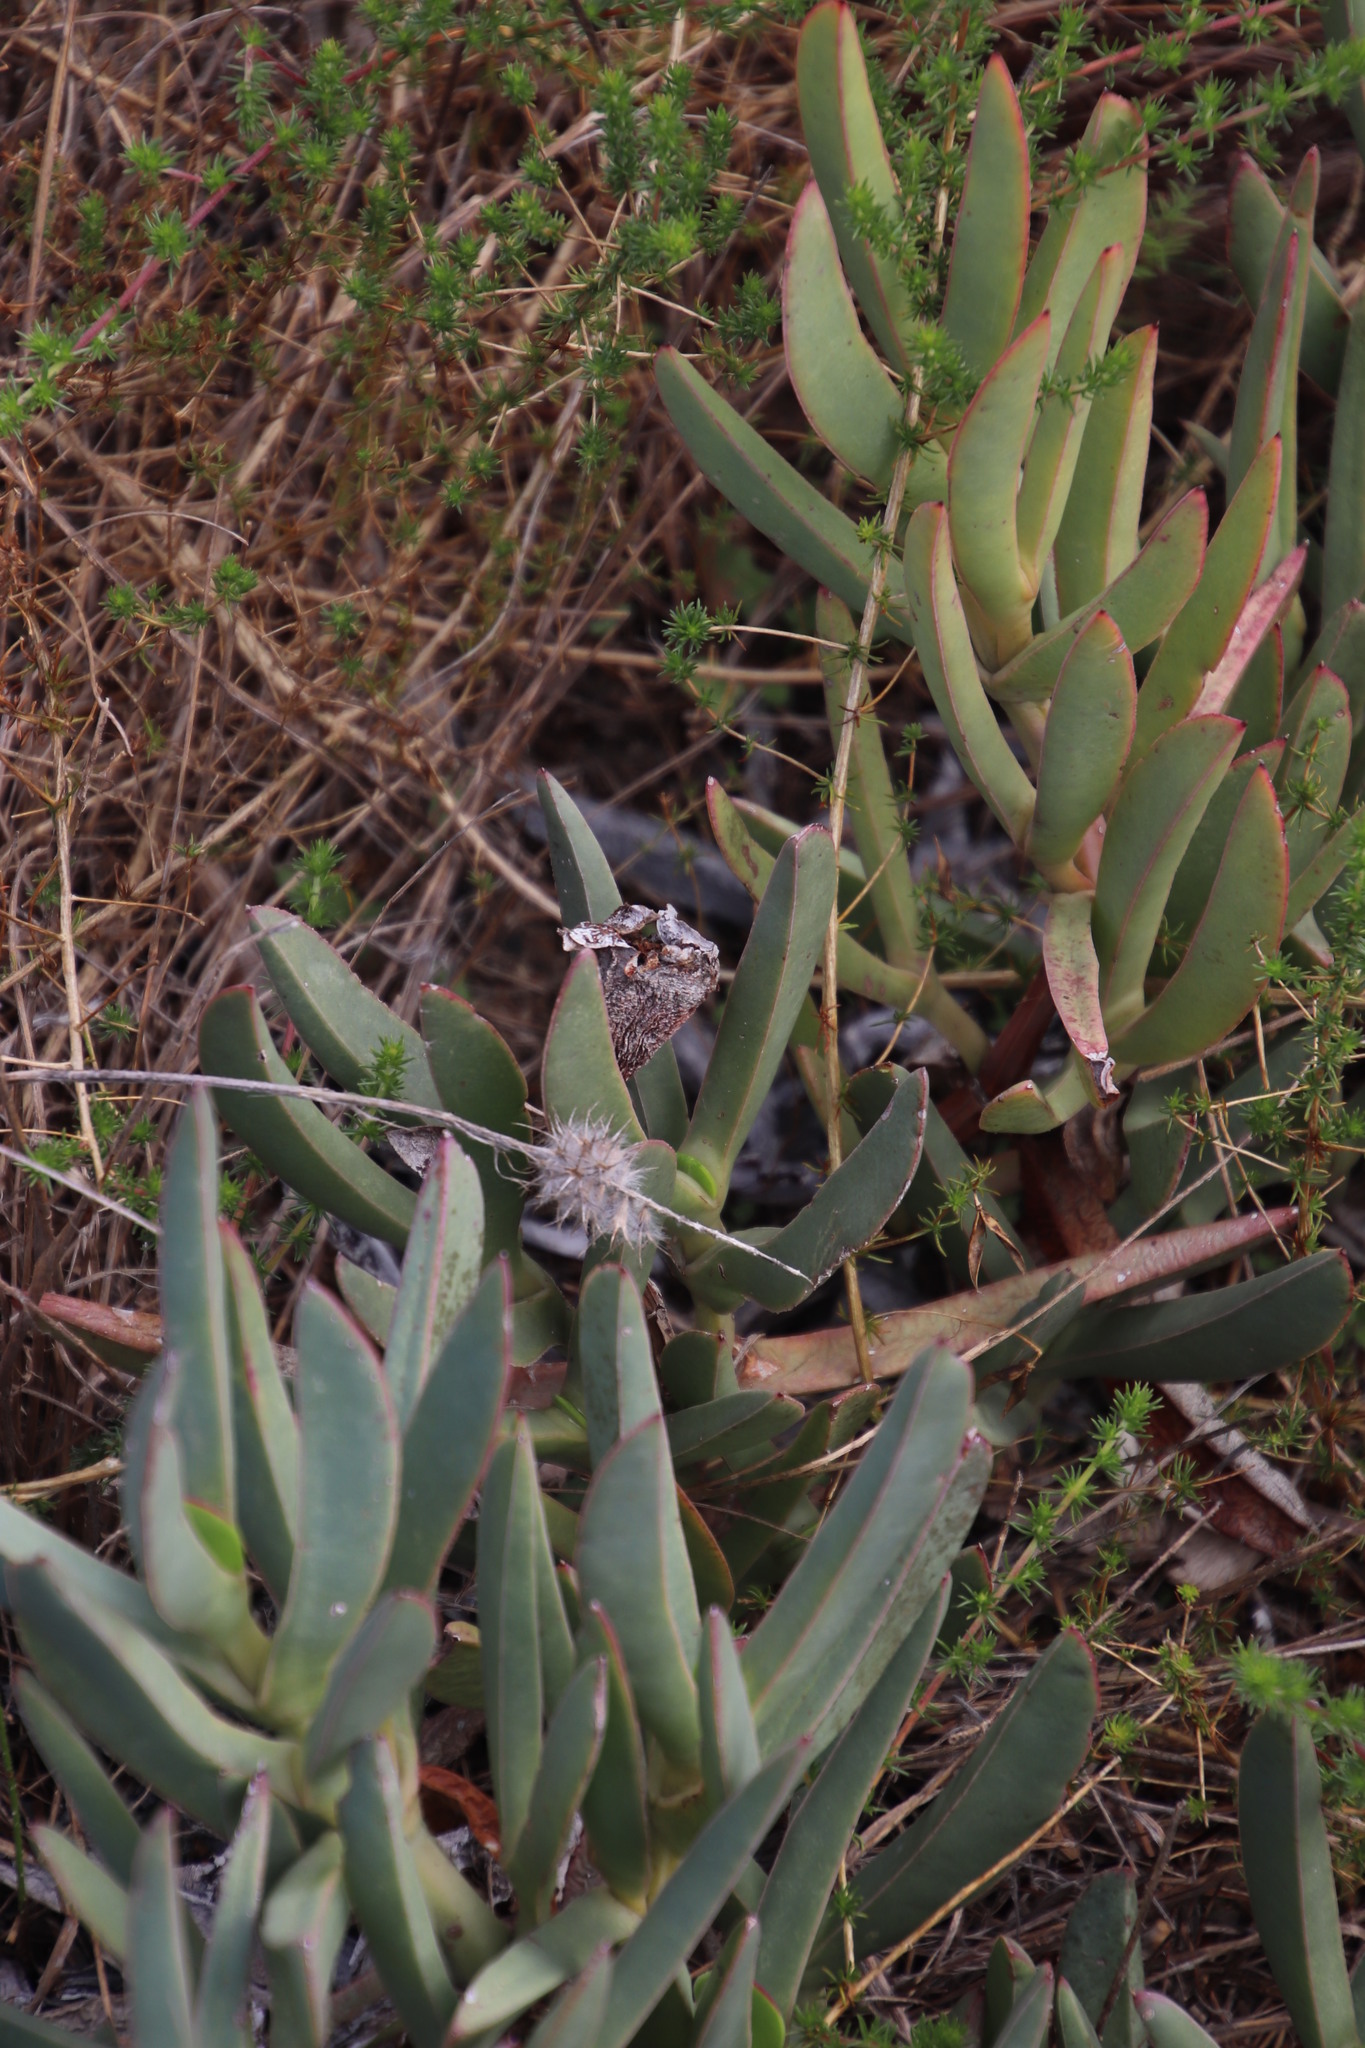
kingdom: Plantae
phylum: Tracheophyta
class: Magnoliopsida
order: Caryophyllales
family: Aizoaceae
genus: Carpobrotus
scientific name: Carpobrotus edulis
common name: Hottentot-fig
